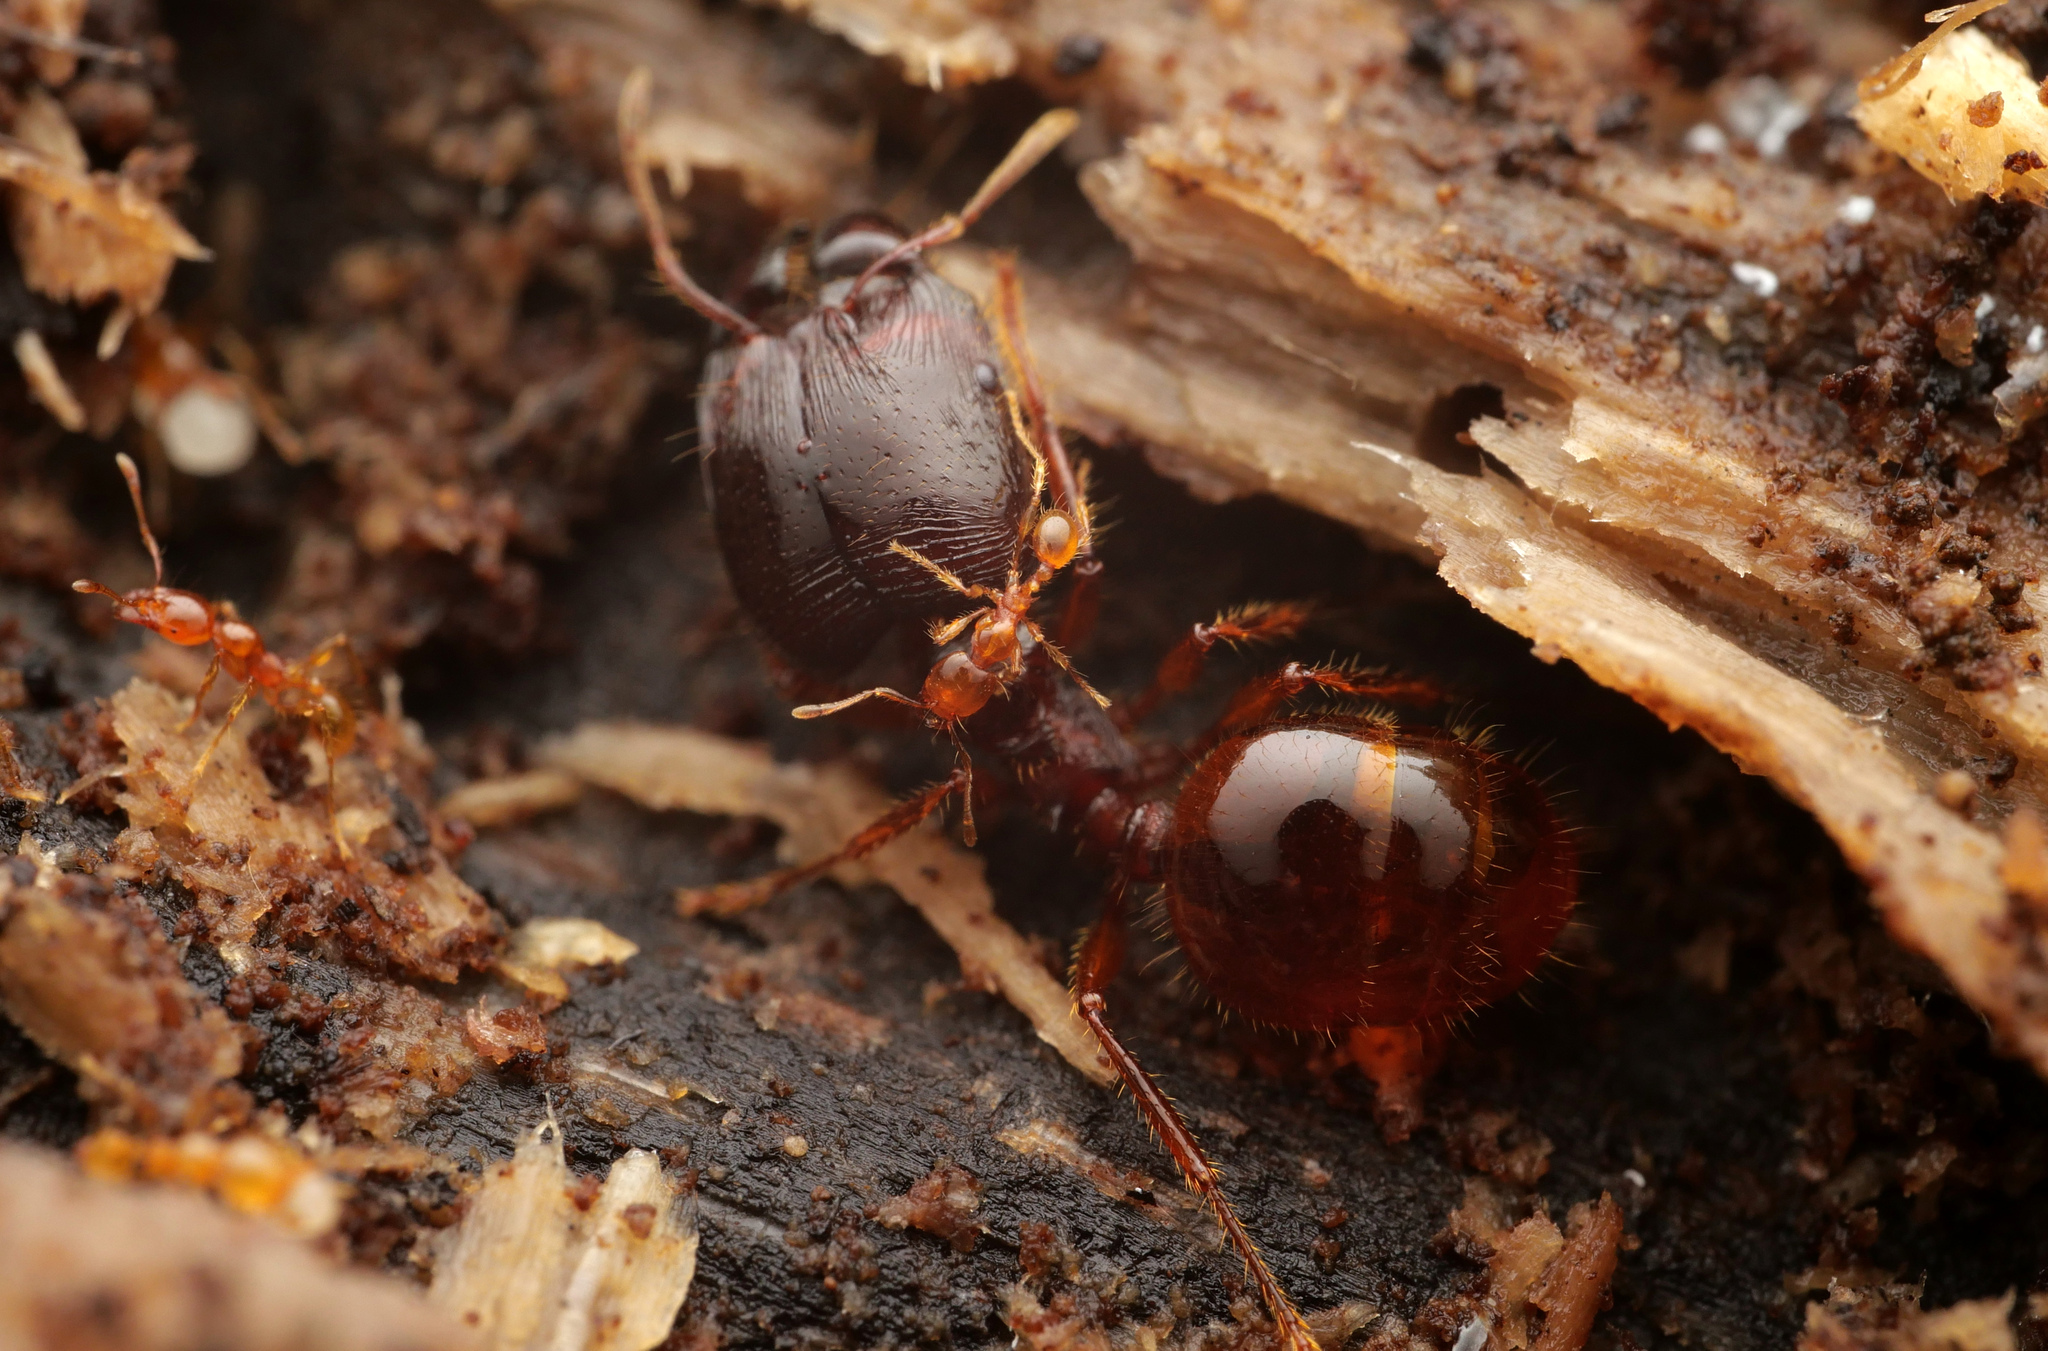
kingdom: Animalia
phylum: Arthropoda
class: Insecta
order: Hymenoptera
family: Formicidae
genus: Carebara
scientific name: Carebara affinis
